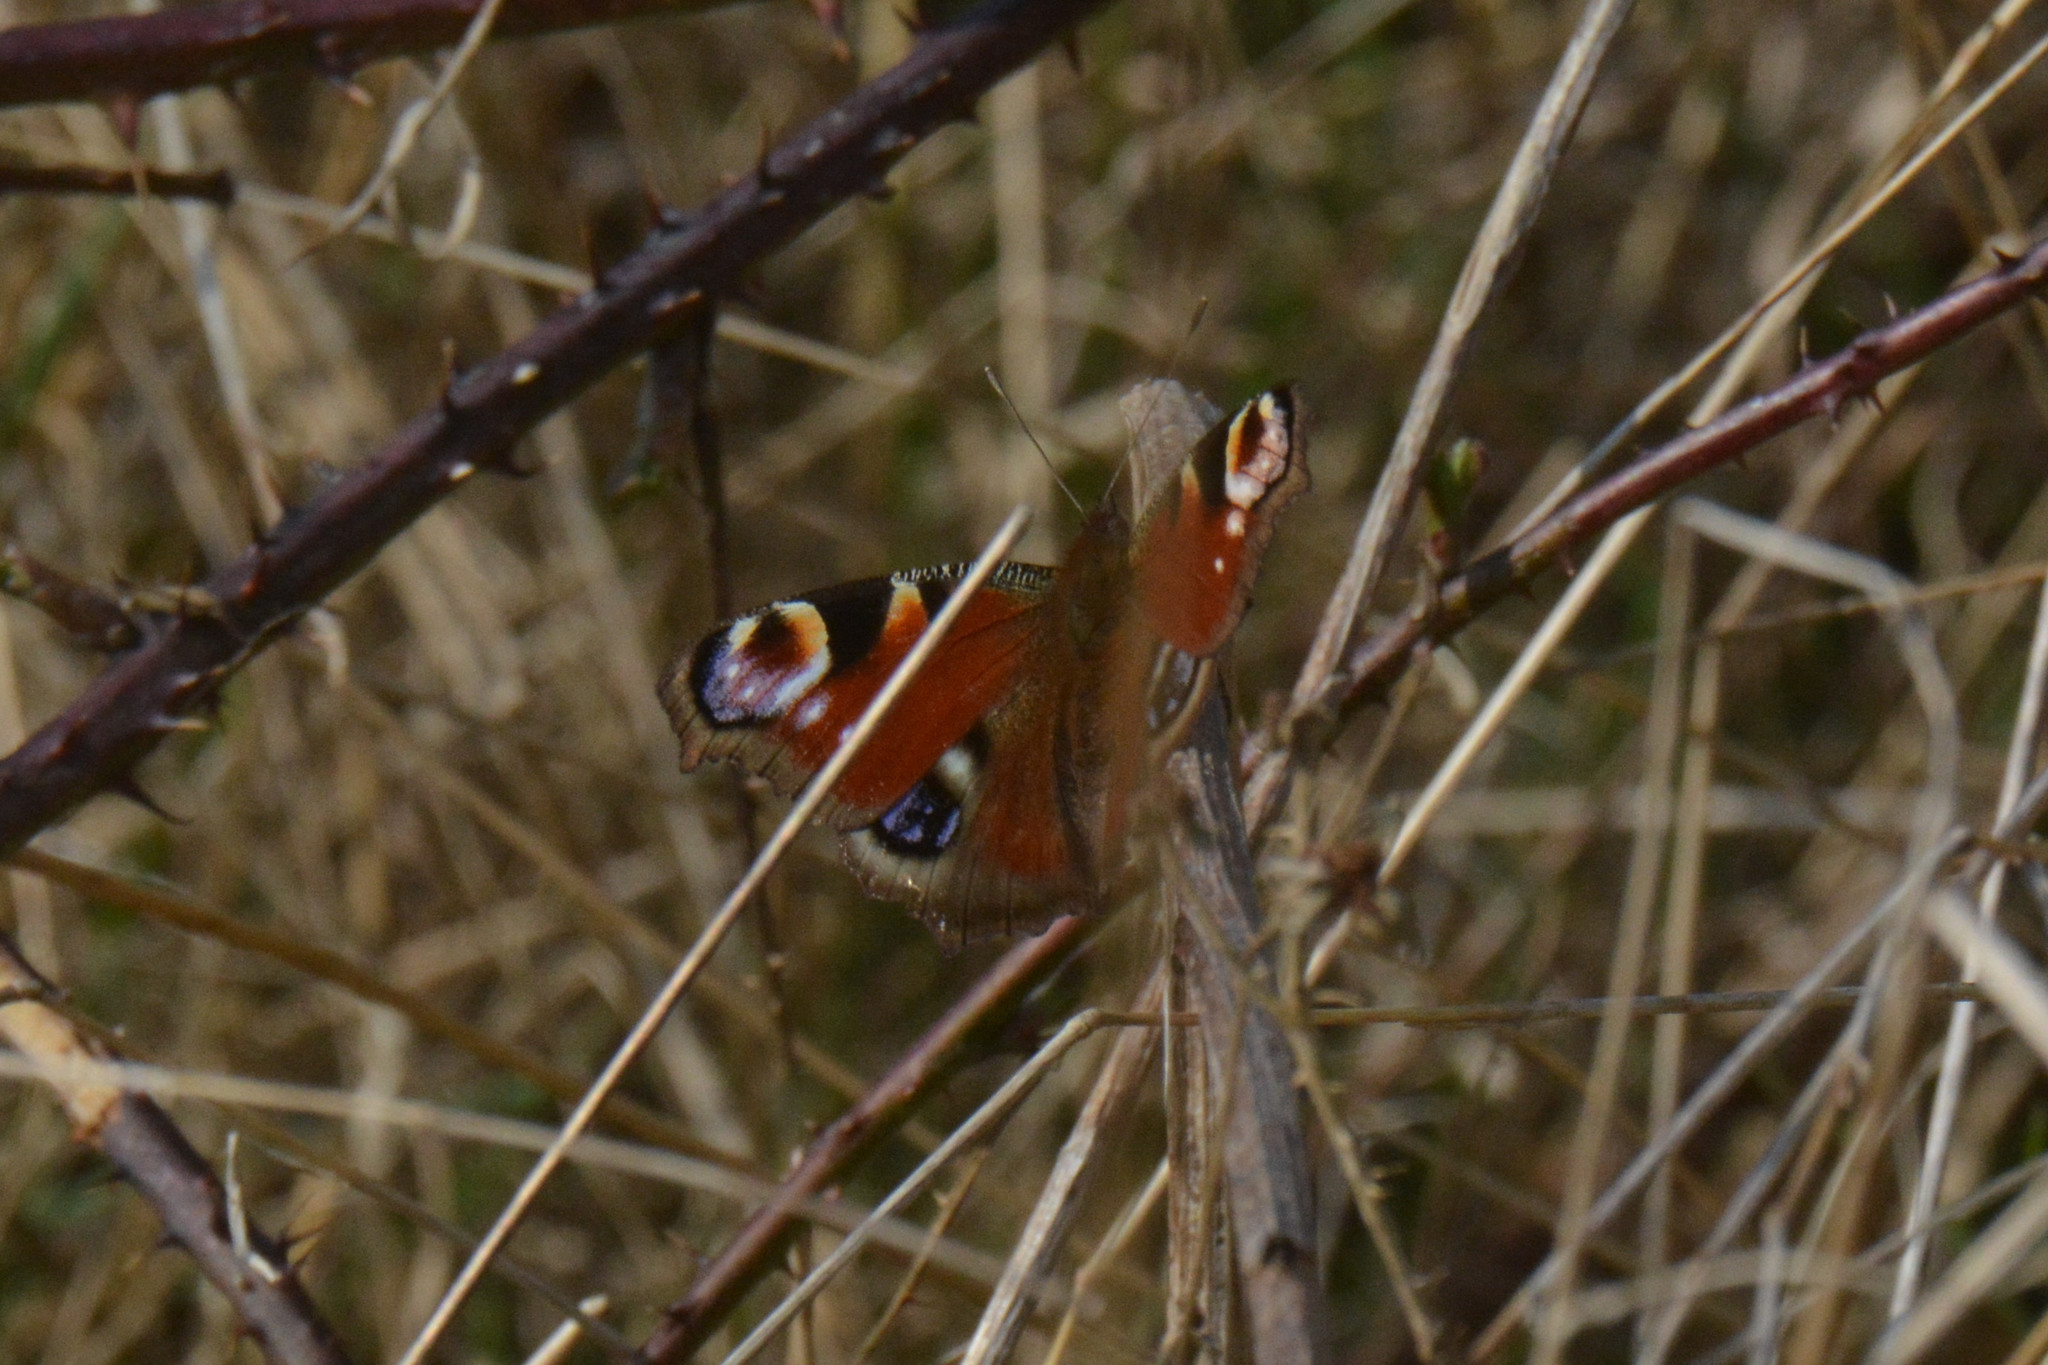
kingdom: Animalia
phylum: Arthropoda
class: Insecta
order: Lepidoptera
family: Nymphalidae
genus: Aglais
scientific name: Aglais io
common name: Peacock
